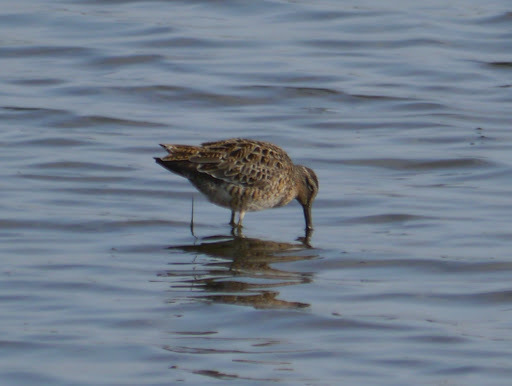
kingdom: Animalia
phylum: Chordata
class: Aves
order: Charadriiformes
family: Scolopacidae
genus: Limnodromus
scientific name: Limnodromus griseus
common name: Short-billed dowitcher
